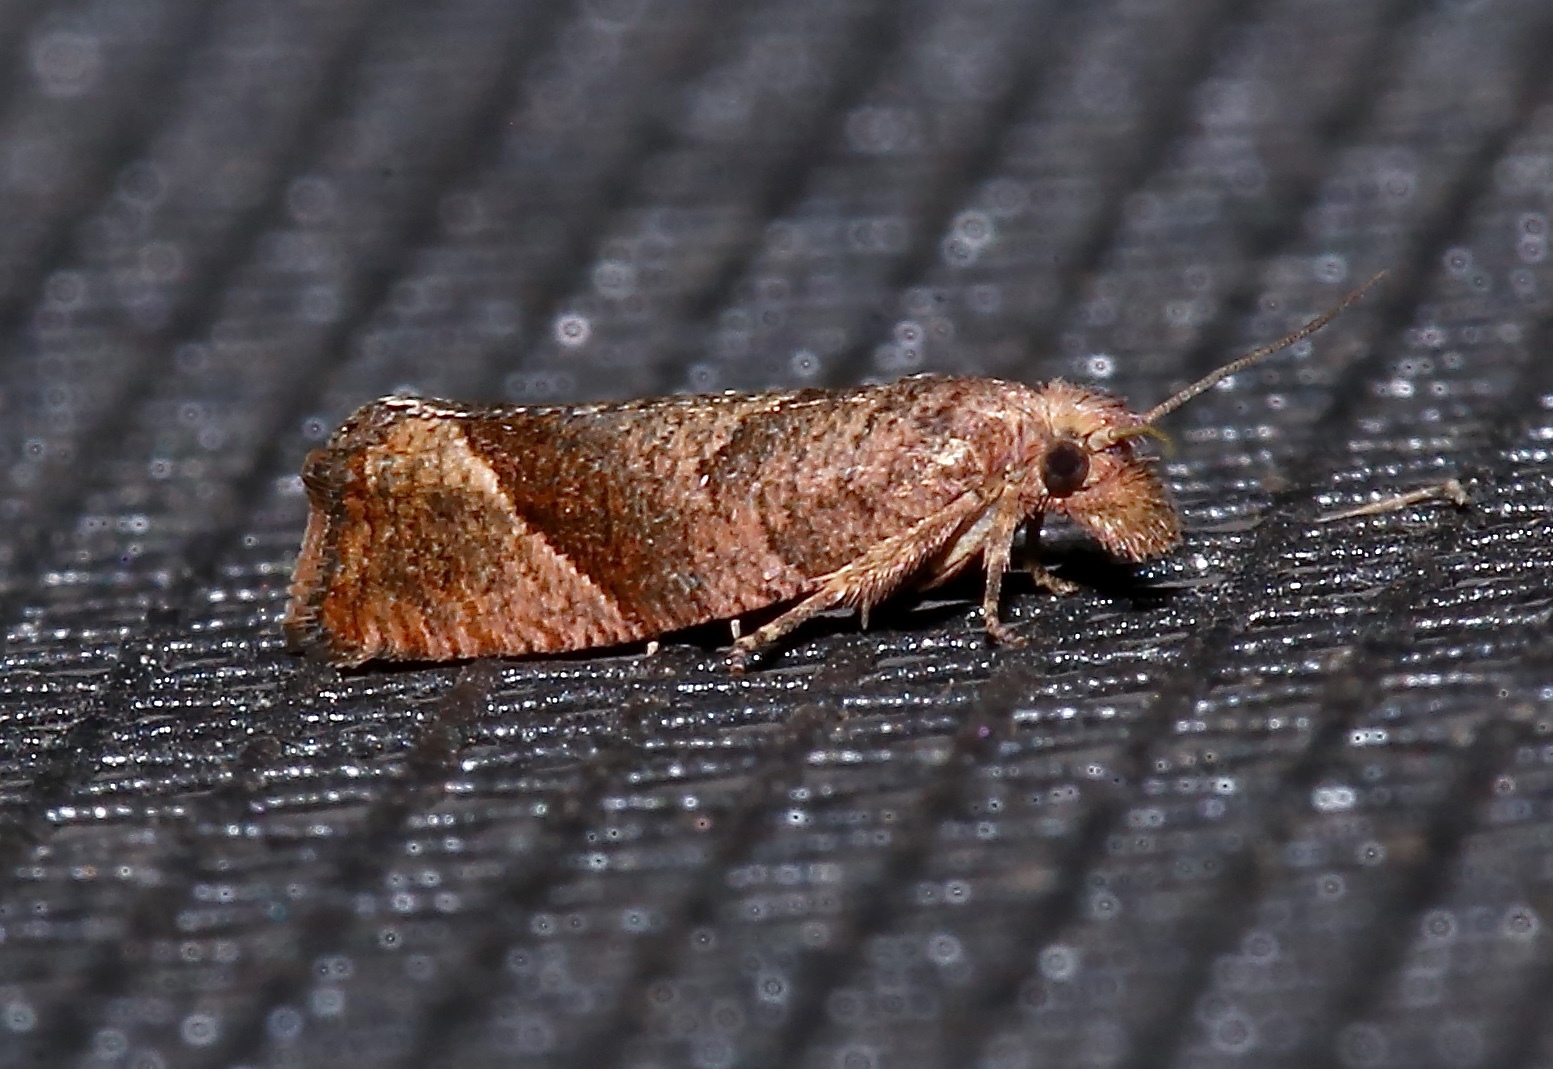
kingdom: Animalia
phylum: Arthropoda
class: Insecta
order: Lepidoptera
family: Tortricidae
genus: Pelochrista
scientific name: Pelochrista derelicta
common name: Derelict pelochrista moth
